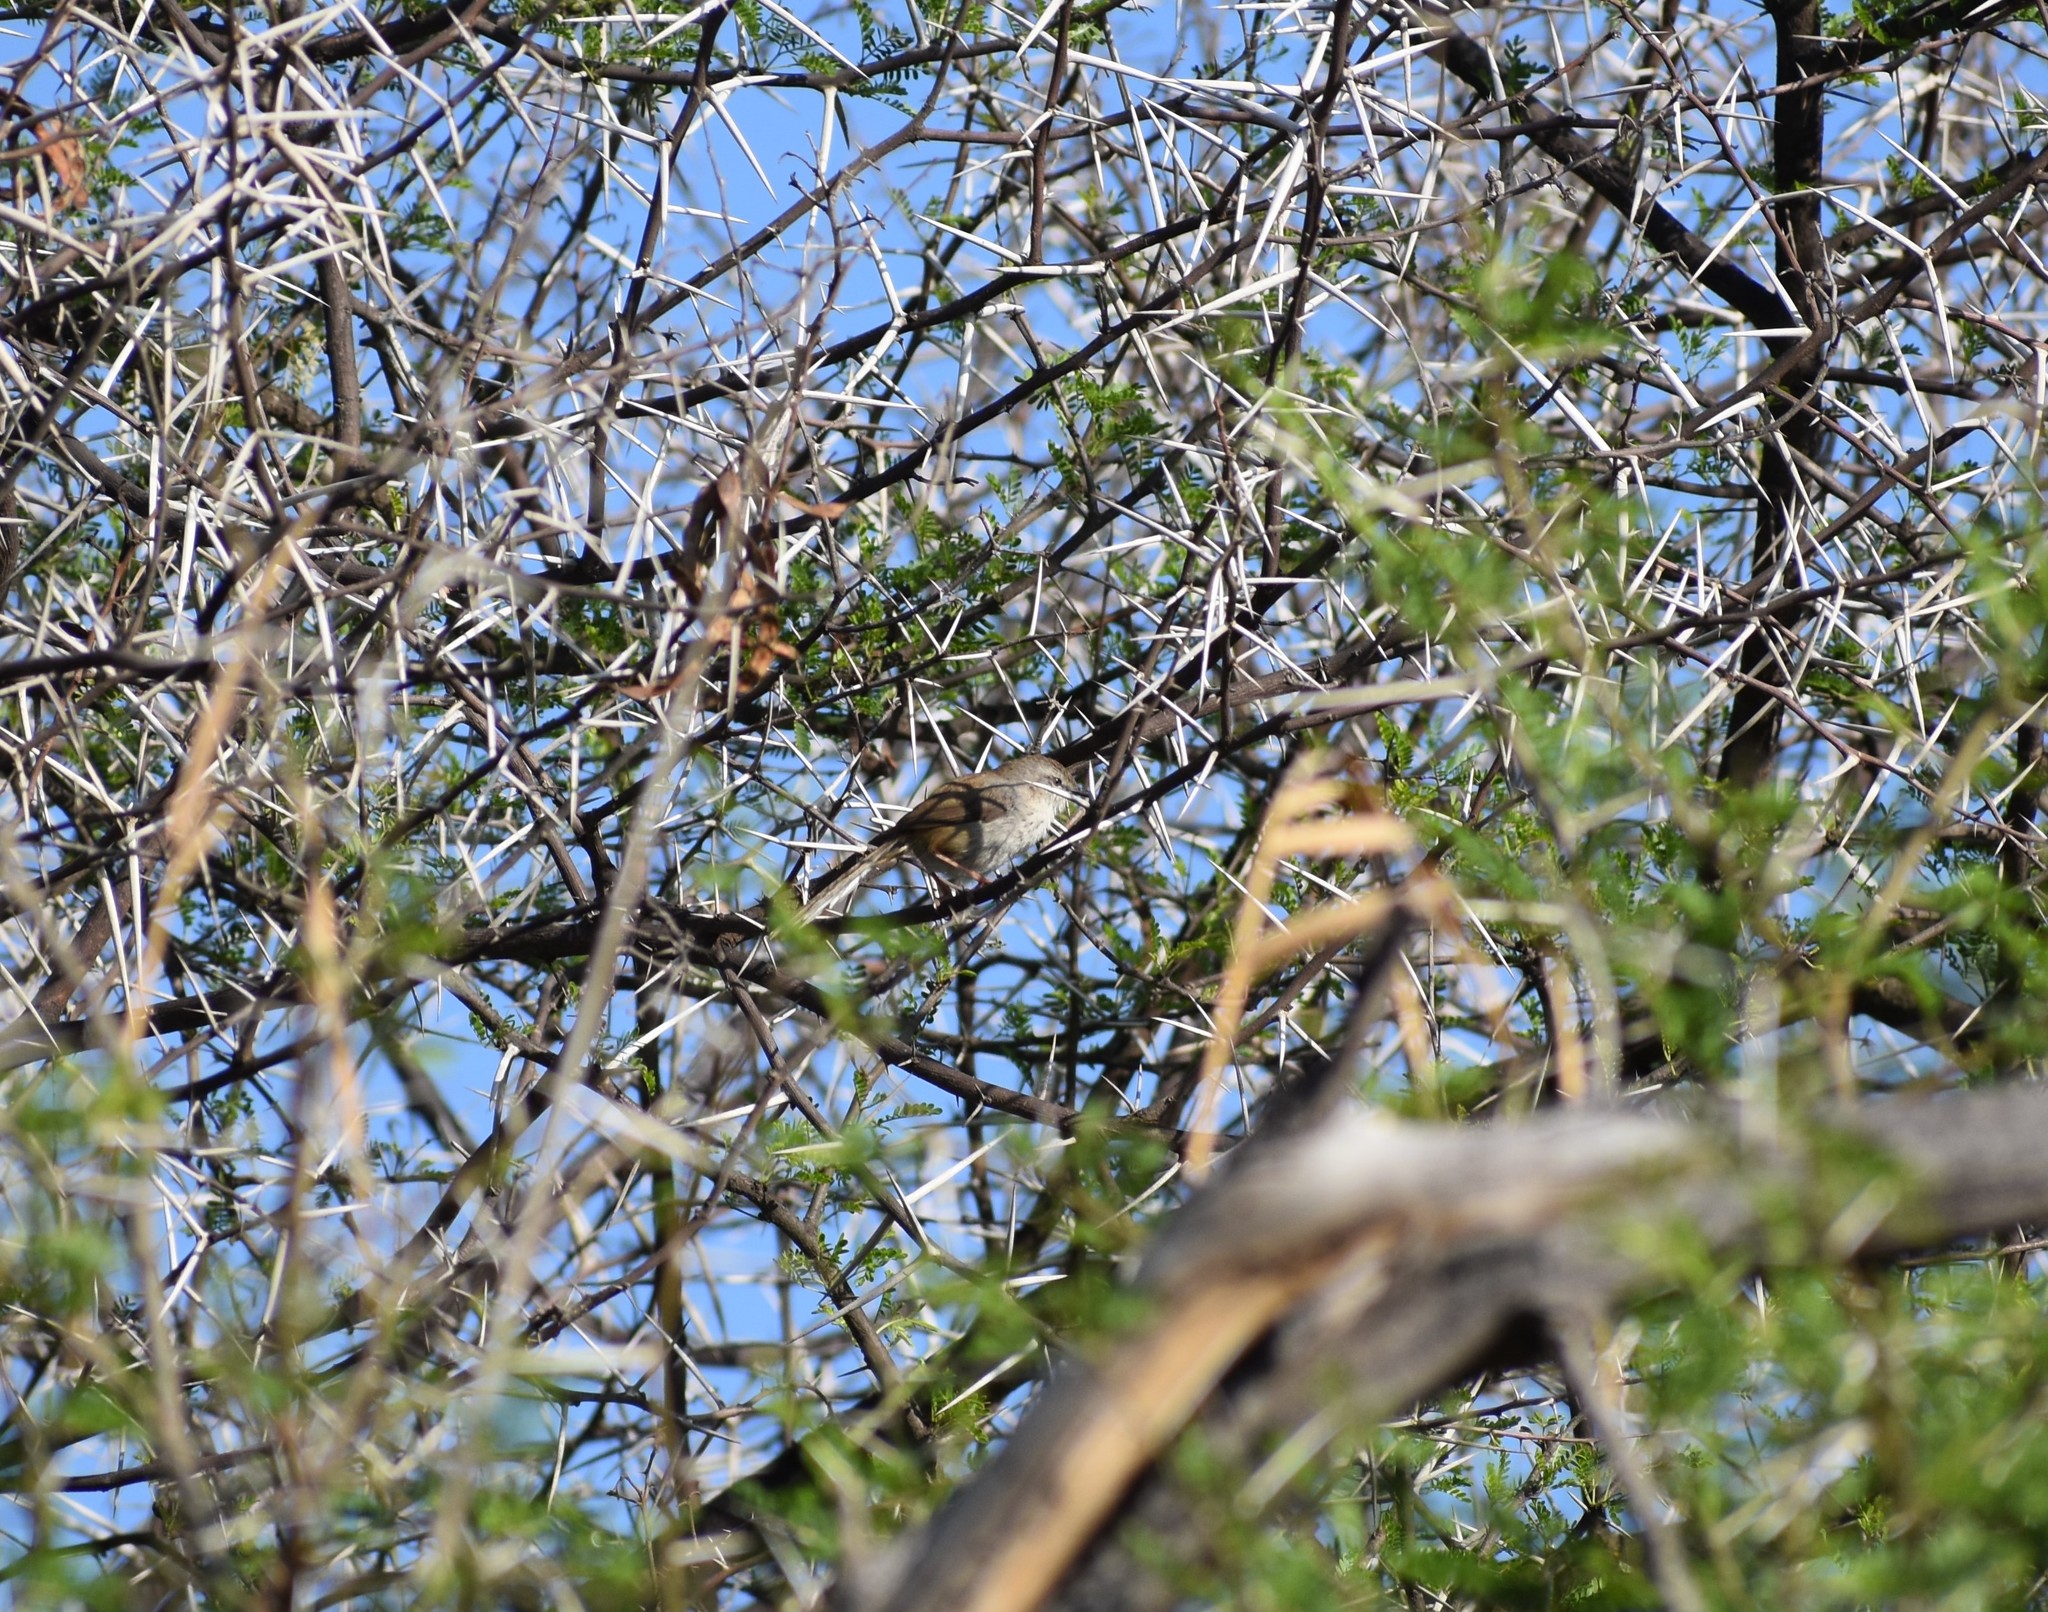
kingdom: Animalia
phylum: Chordata
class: Aves
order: Passeriformes
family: Cisticolidae
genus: Phragmacia
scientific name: Phragmacia substriata
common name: Namaqua warbler
